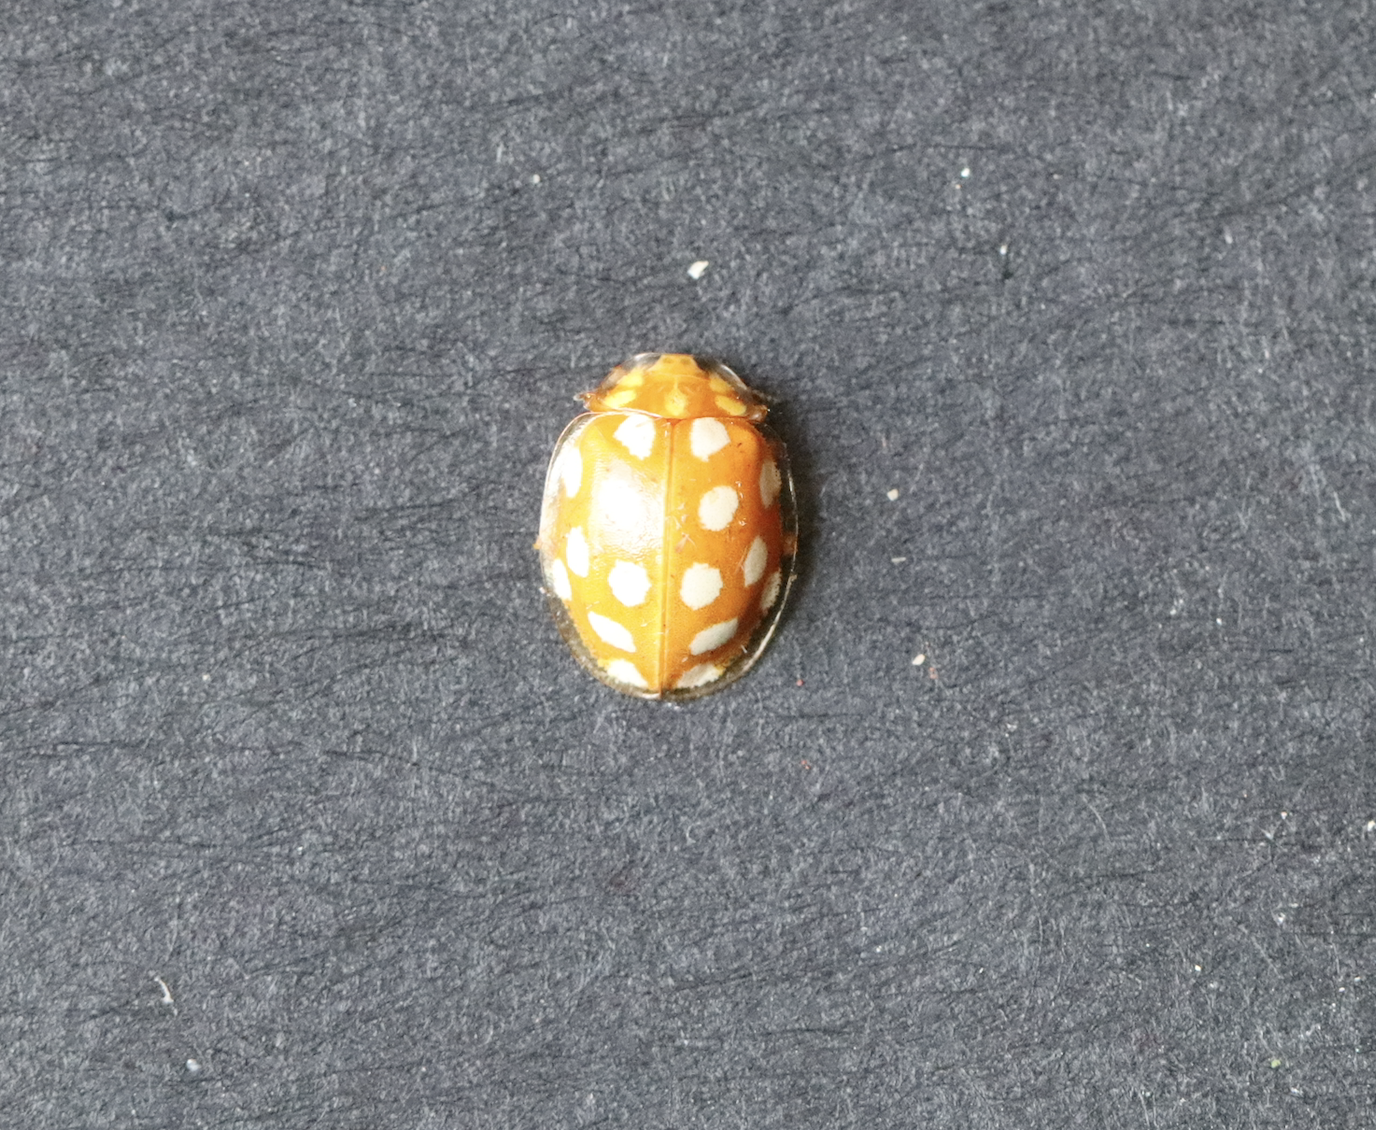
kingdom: Animalia
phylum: Arthropoda
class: Insecta
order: Coleoptera
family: Coccinellidae
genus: Halyzia
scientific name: Halyzia sedecimguttata
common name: Orange ladybird
